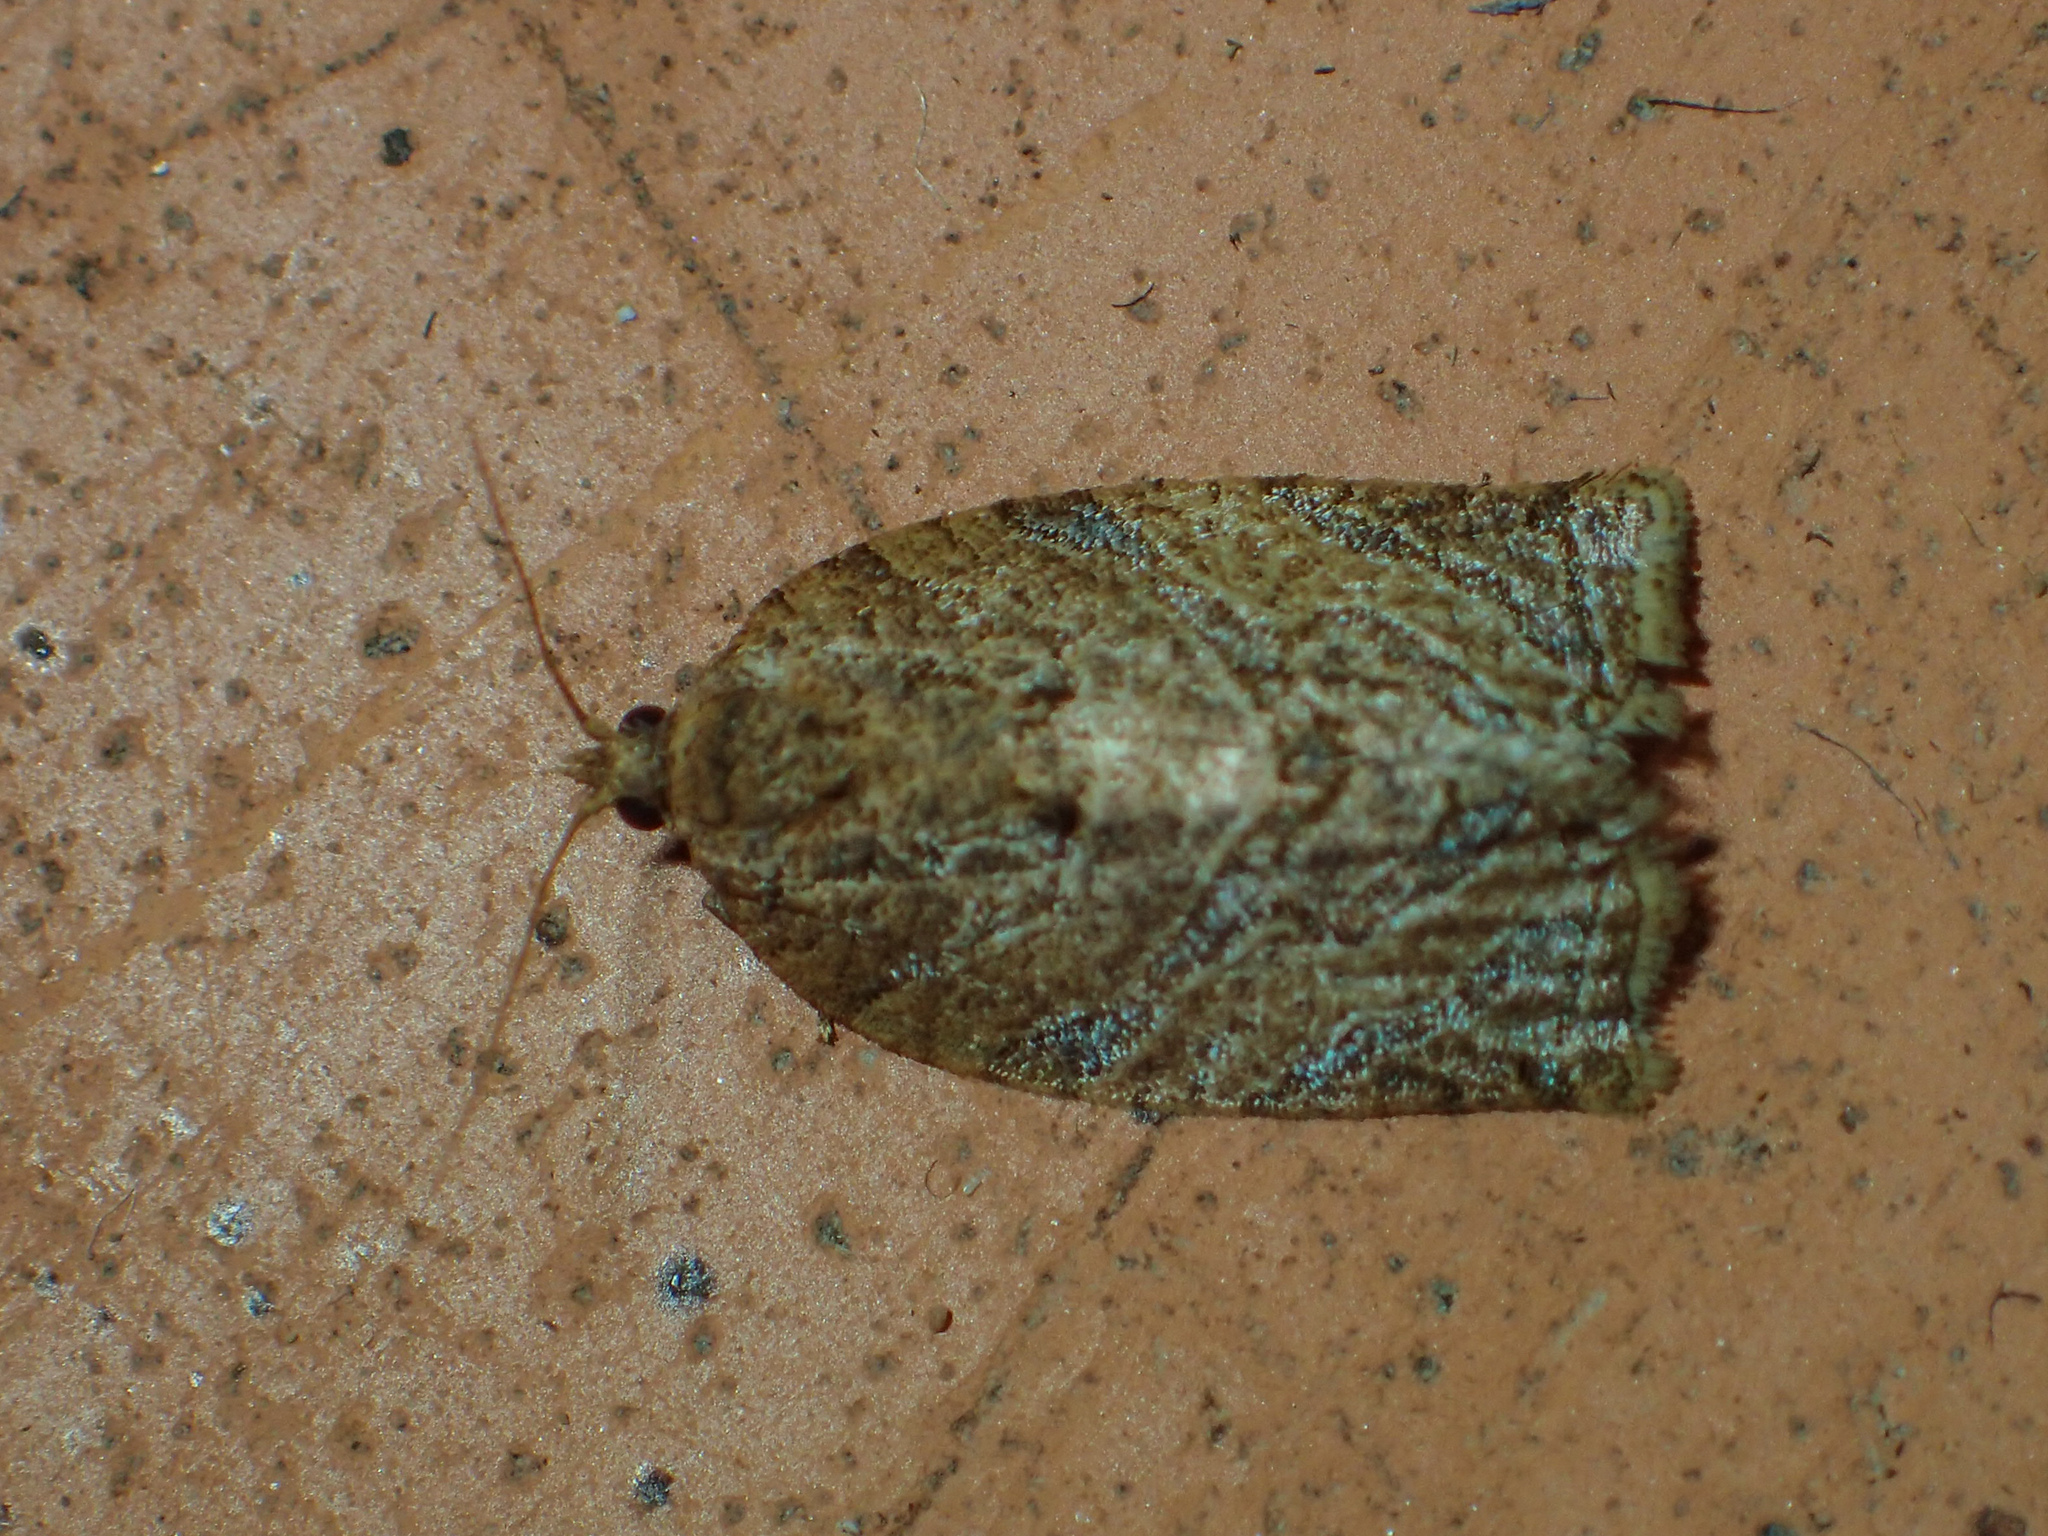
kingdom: Animalia
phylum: Arthropoda
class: Insecta
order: Lepidoptera
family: Tortricidae
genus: Adoxophyes
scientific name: Adoxophyes privatana
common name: Asian orchid tortrix
